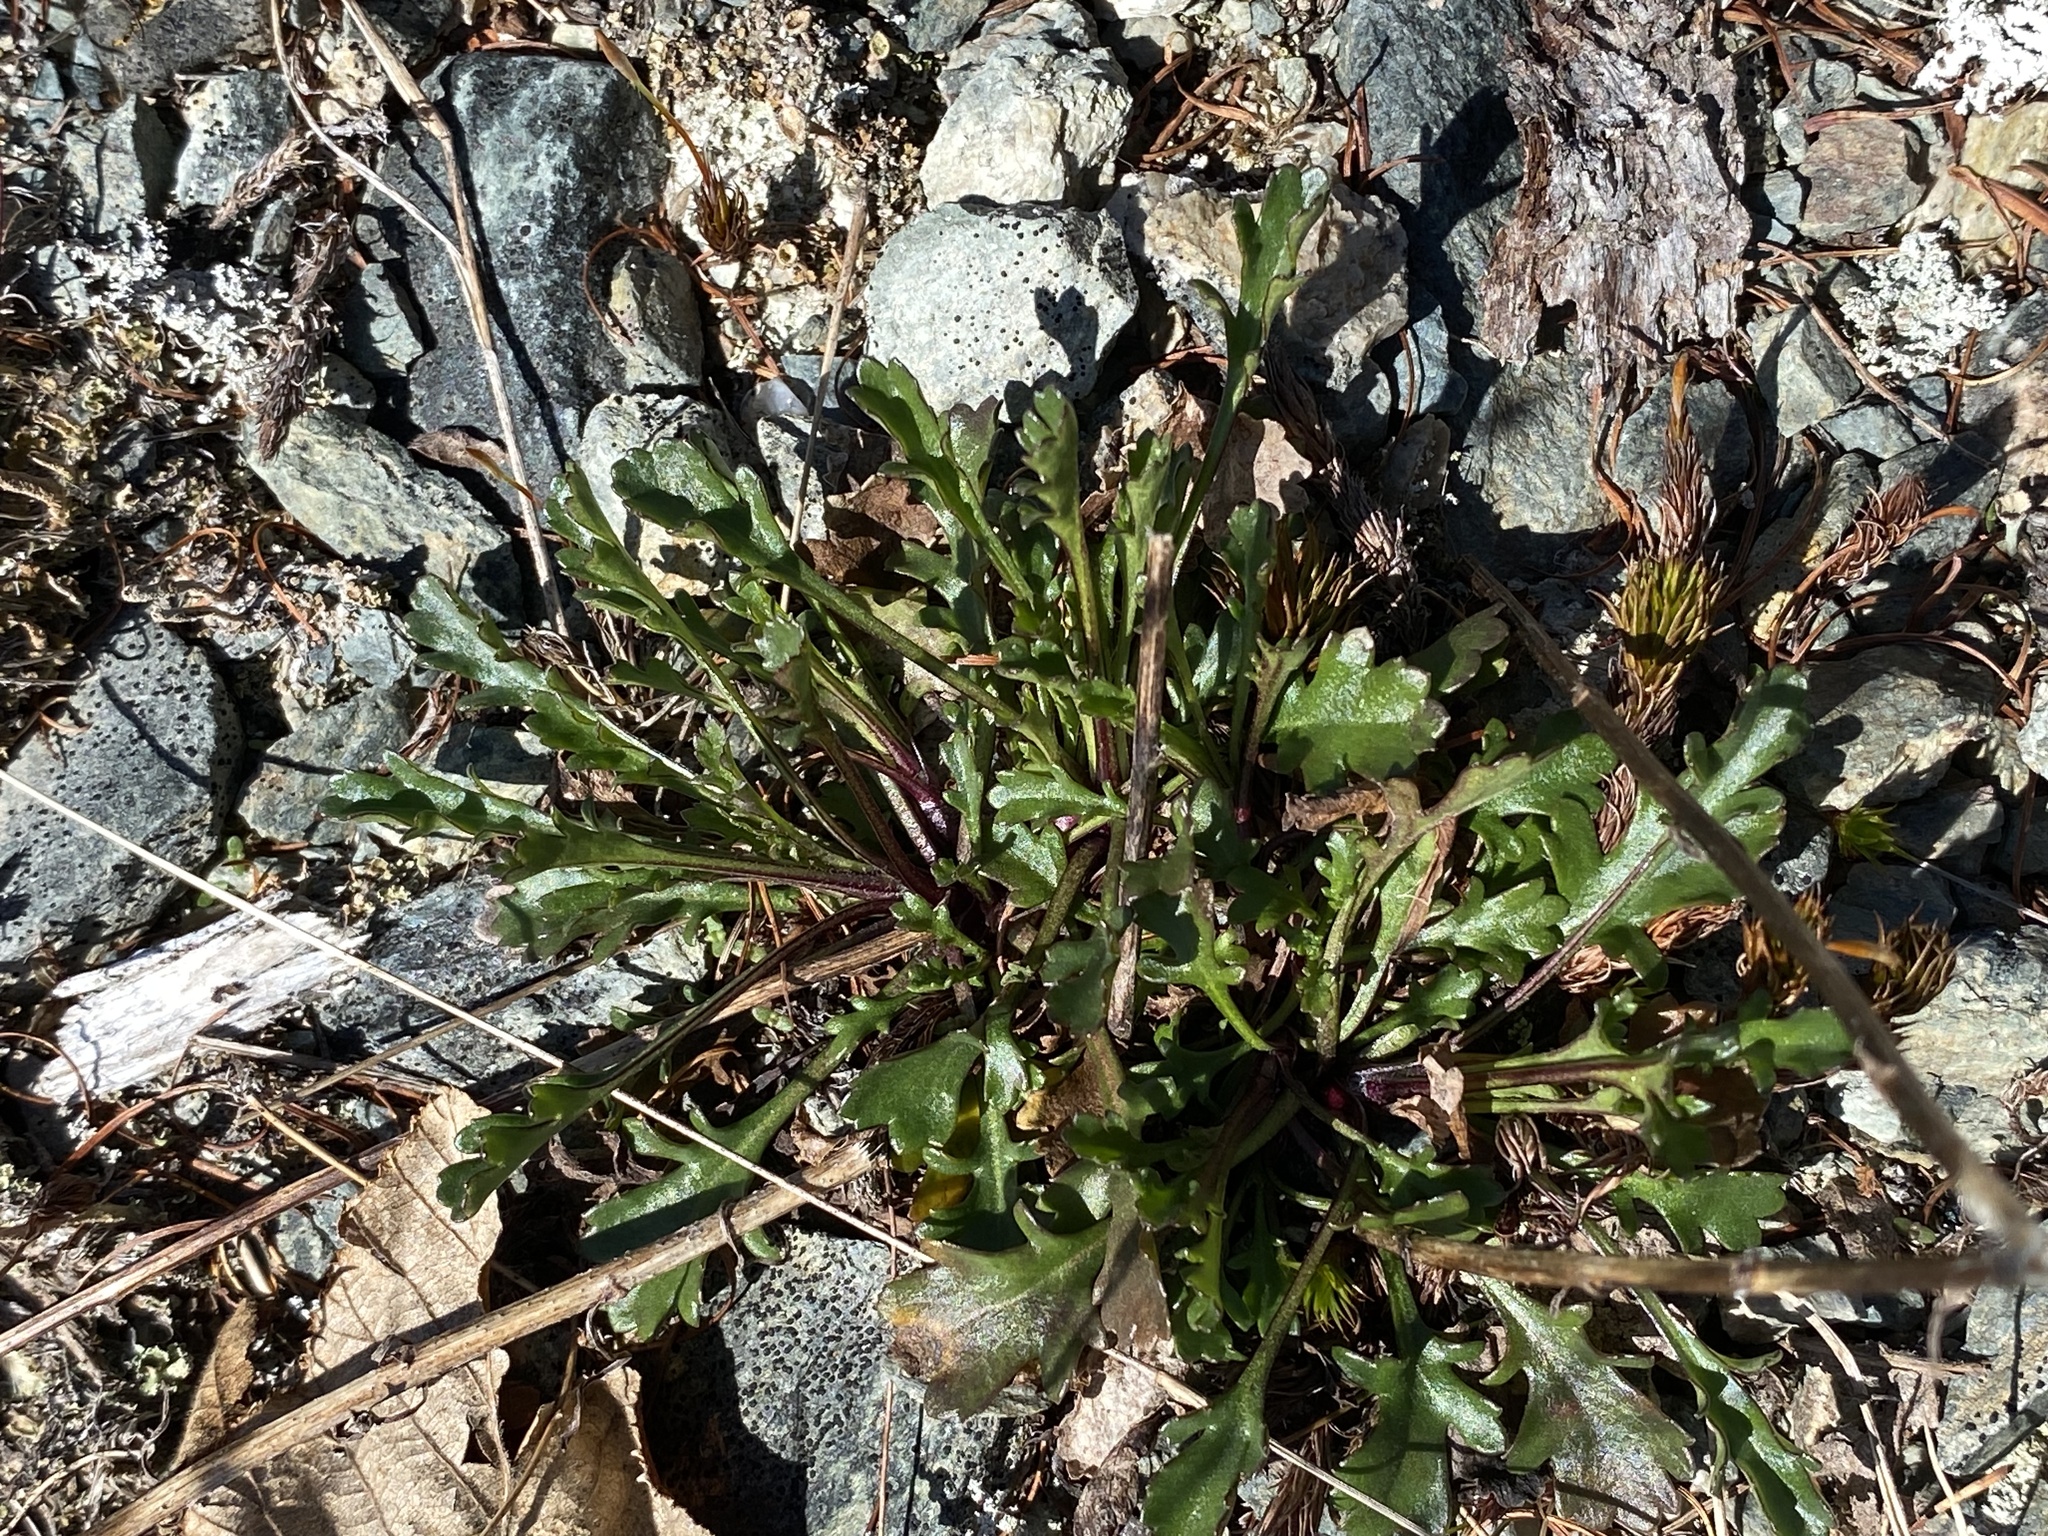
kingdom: Plantae
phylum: Tracheophyta
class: Magnoliopsida
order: Asterales
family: Asteraceae
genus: Leucanthemum
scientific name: Leucanthemum vulgare
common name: Oxeye daisy
